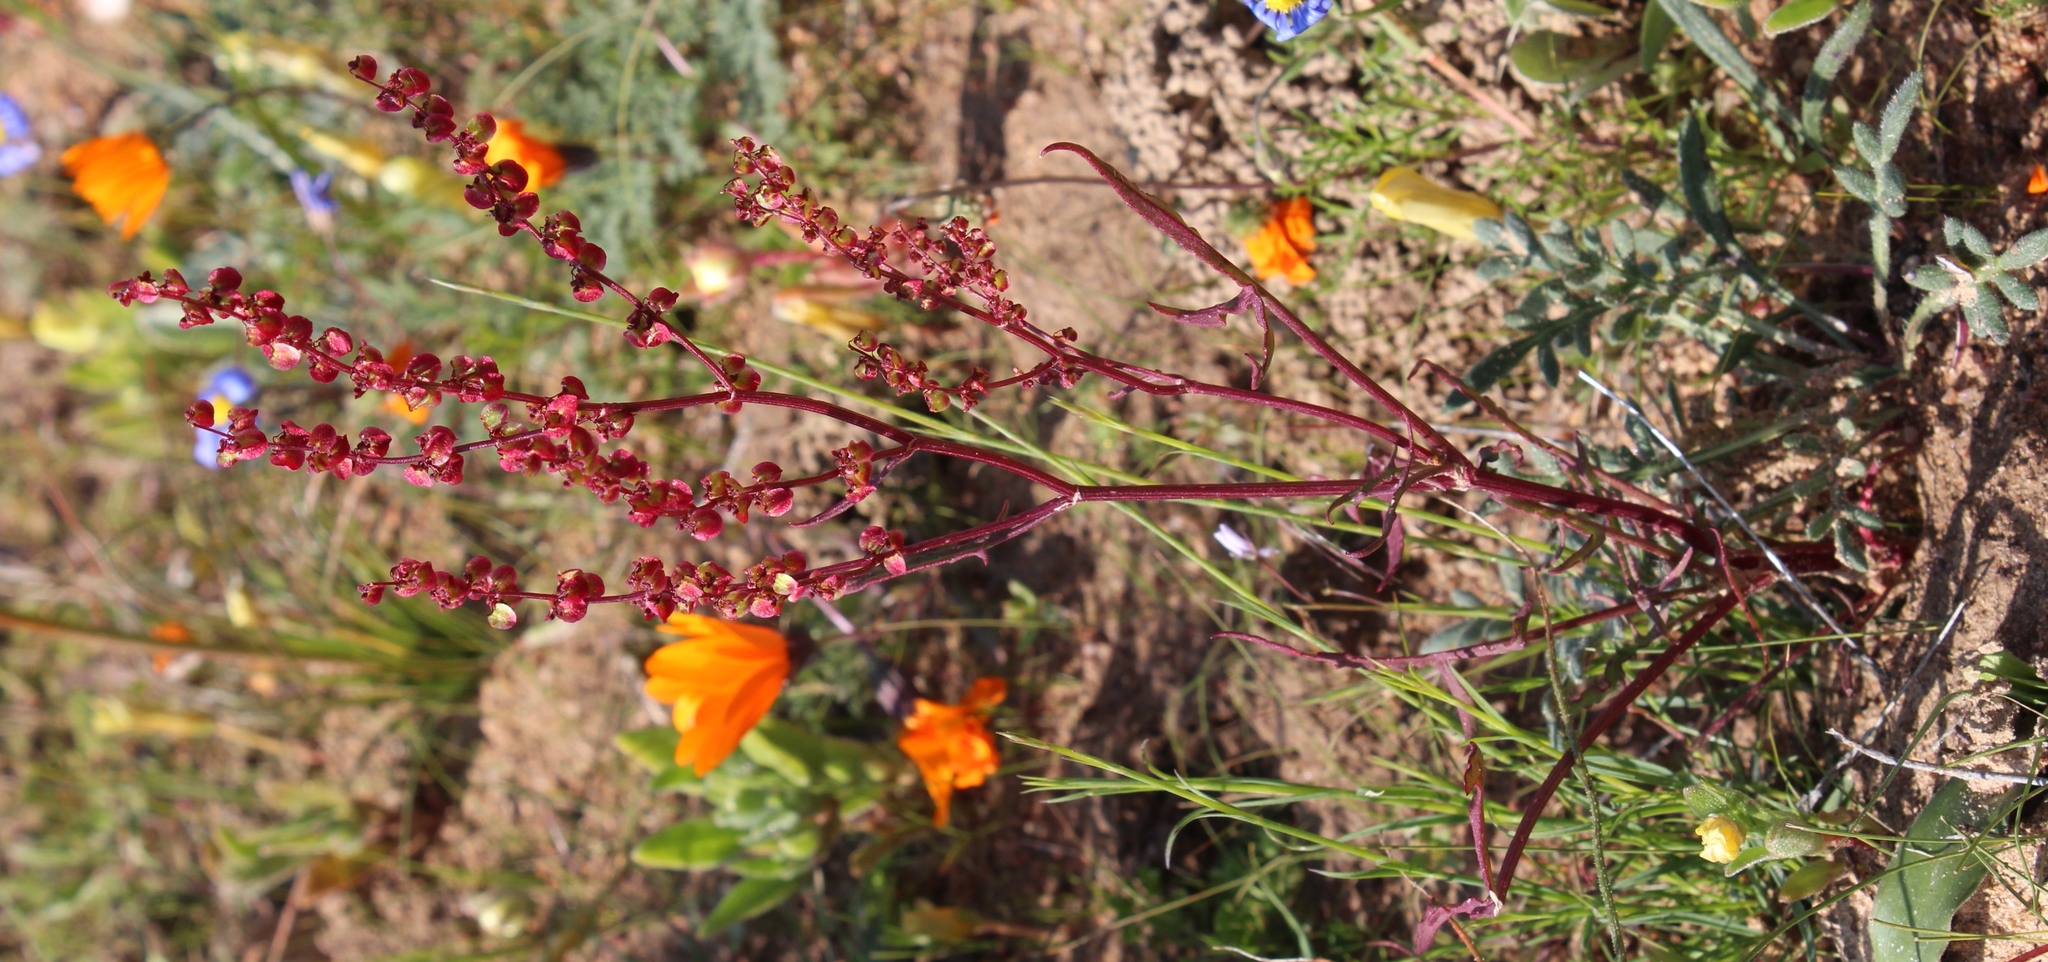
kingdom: Plantae
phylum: Tracheophyta
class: Magnoliopsida
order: Caryophyllales
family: Polygonaceae
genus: Rumex
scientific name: Rumex sagittatus
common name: Climbing dock
